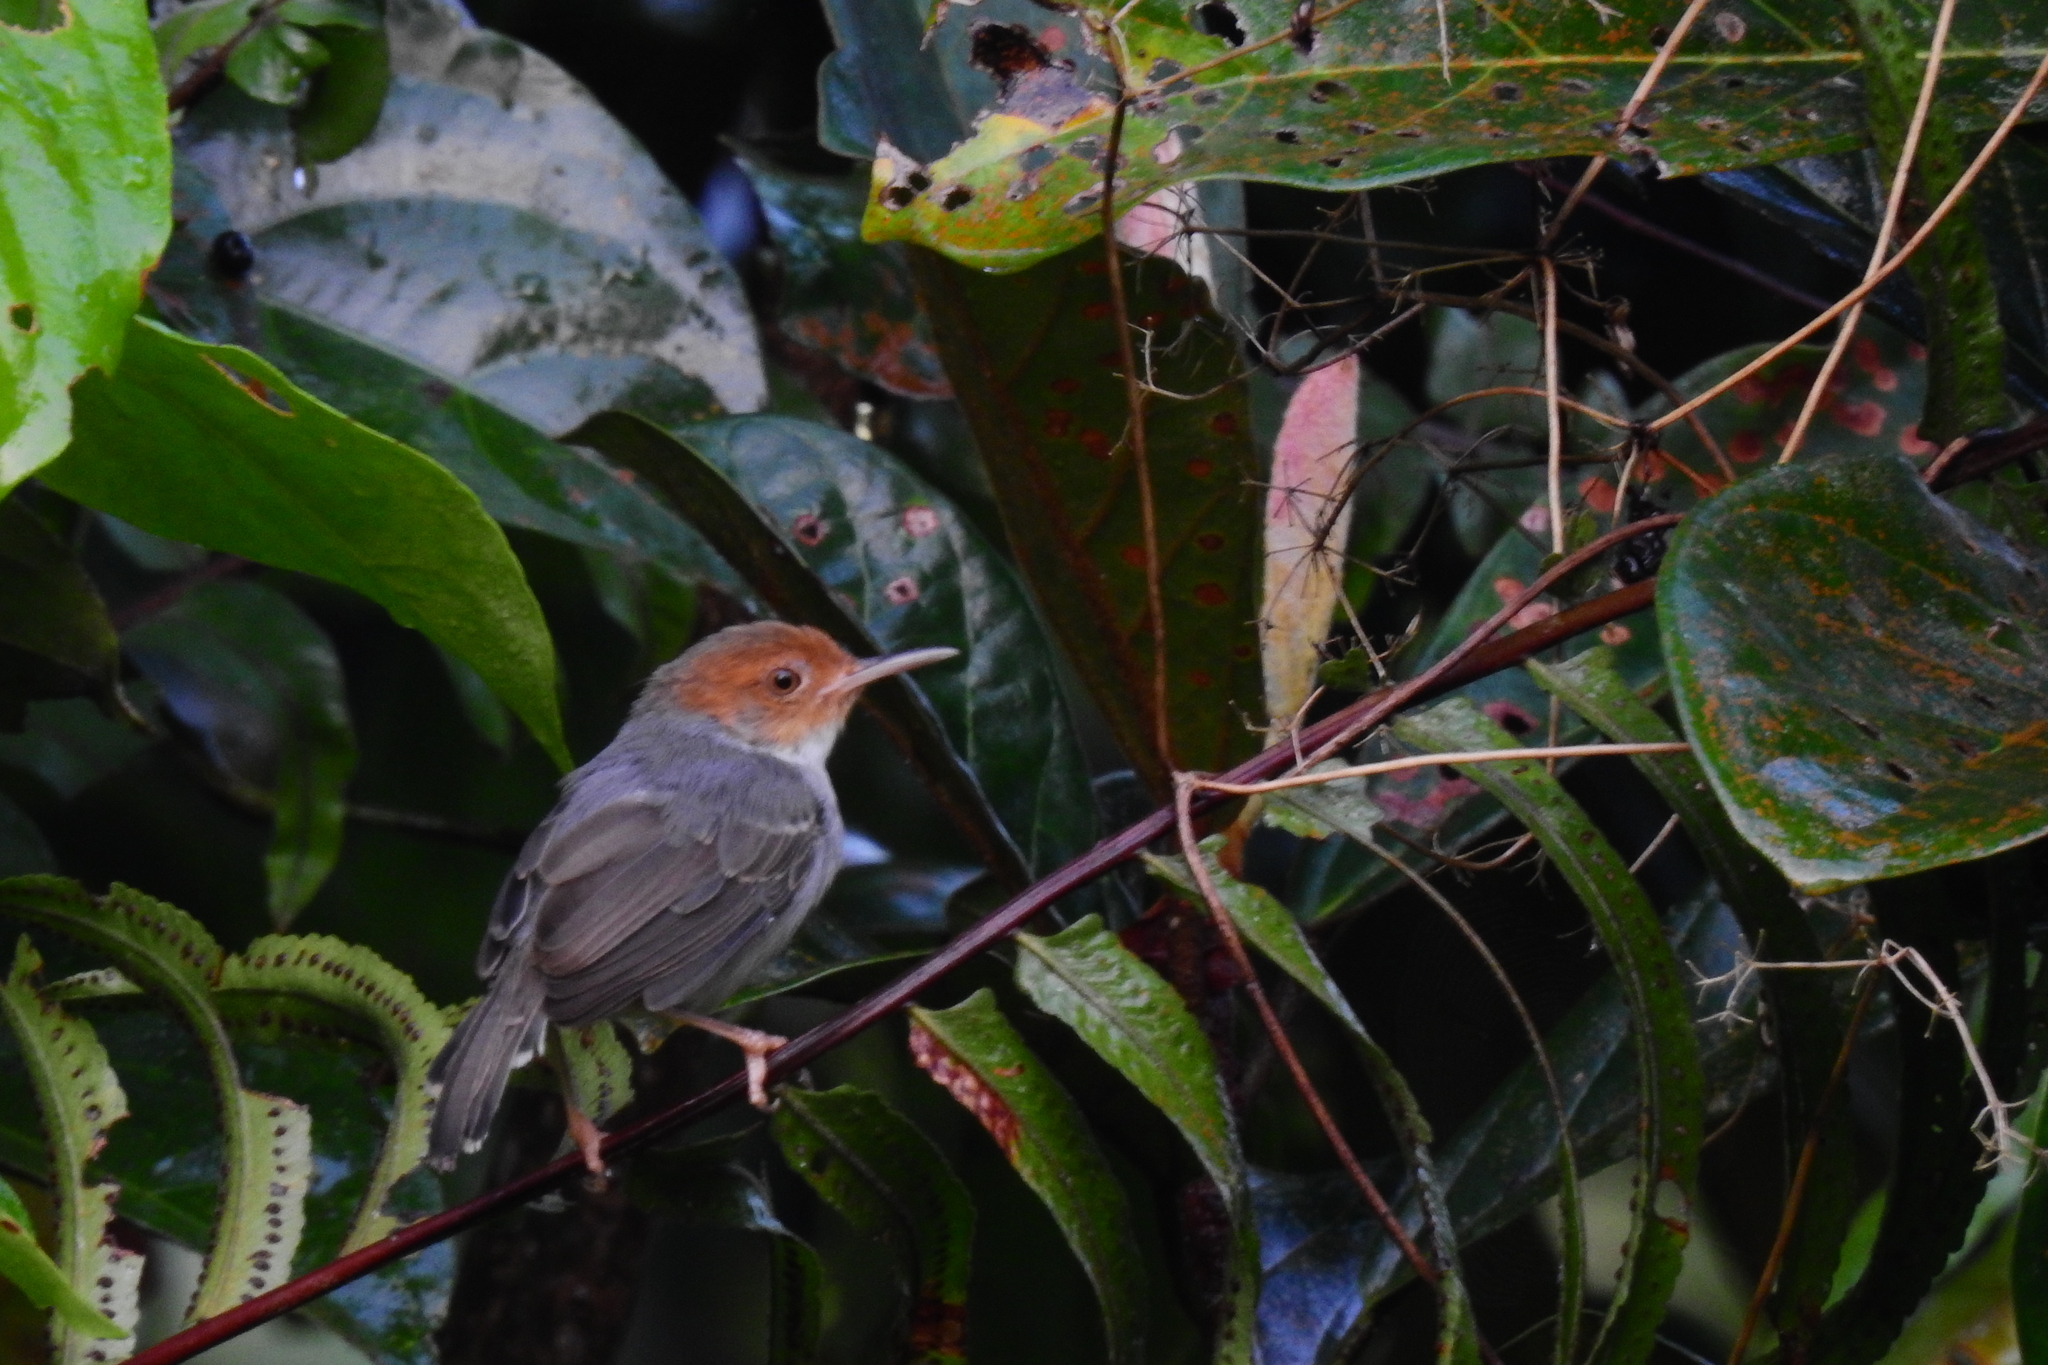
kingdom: Animalia
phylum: Chordata
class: Aves
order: Passeriformes
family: Cisticolidae
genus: Orthotomus
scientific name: Orthotomus ruficeps
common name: Ashy tailorbird
